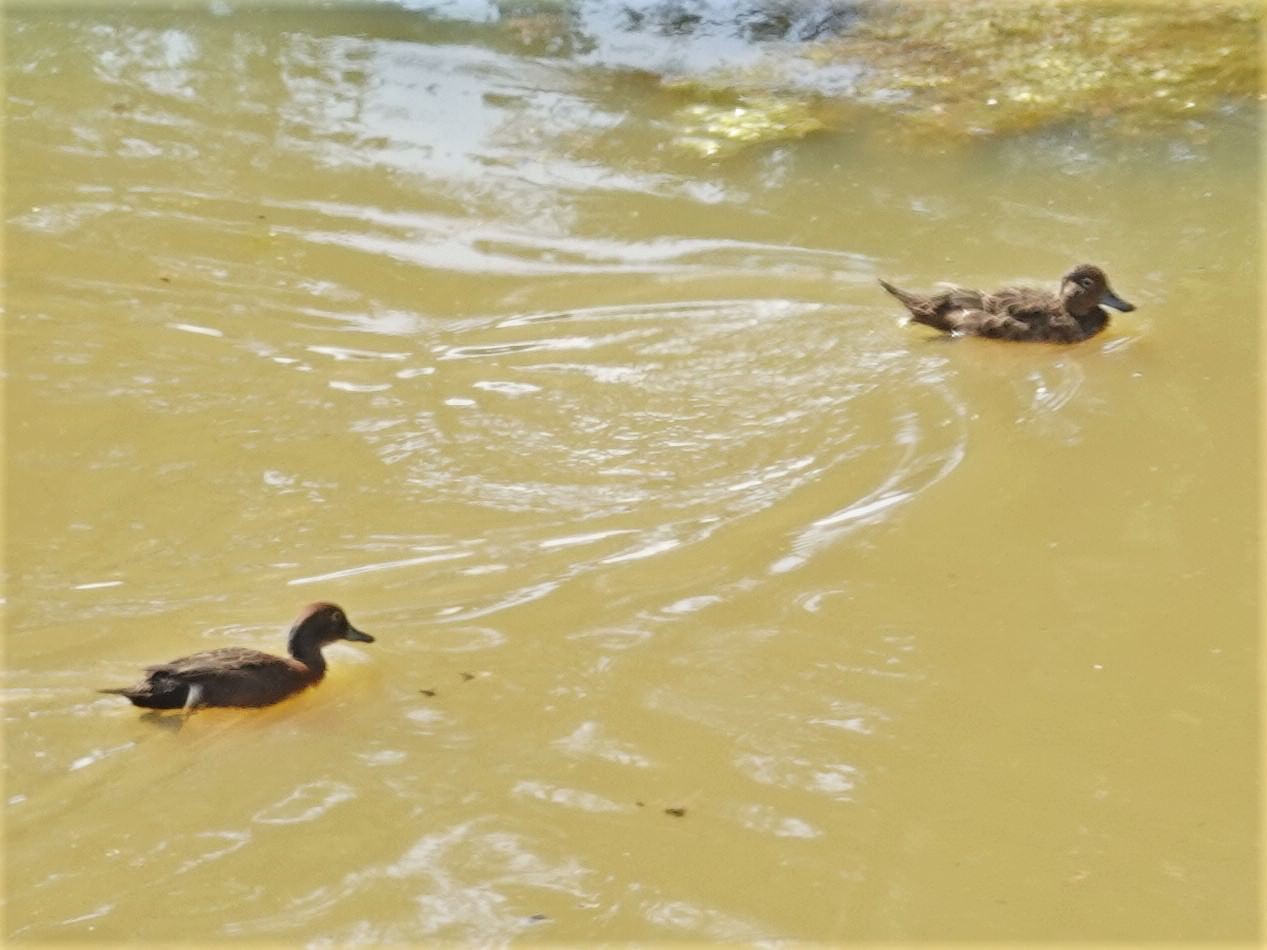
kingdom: Animalia
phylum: Chordata
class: Aves
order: Anseriformes
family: Anatidae
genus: Anas
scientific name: Anas chlorotis
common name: Brown teal
